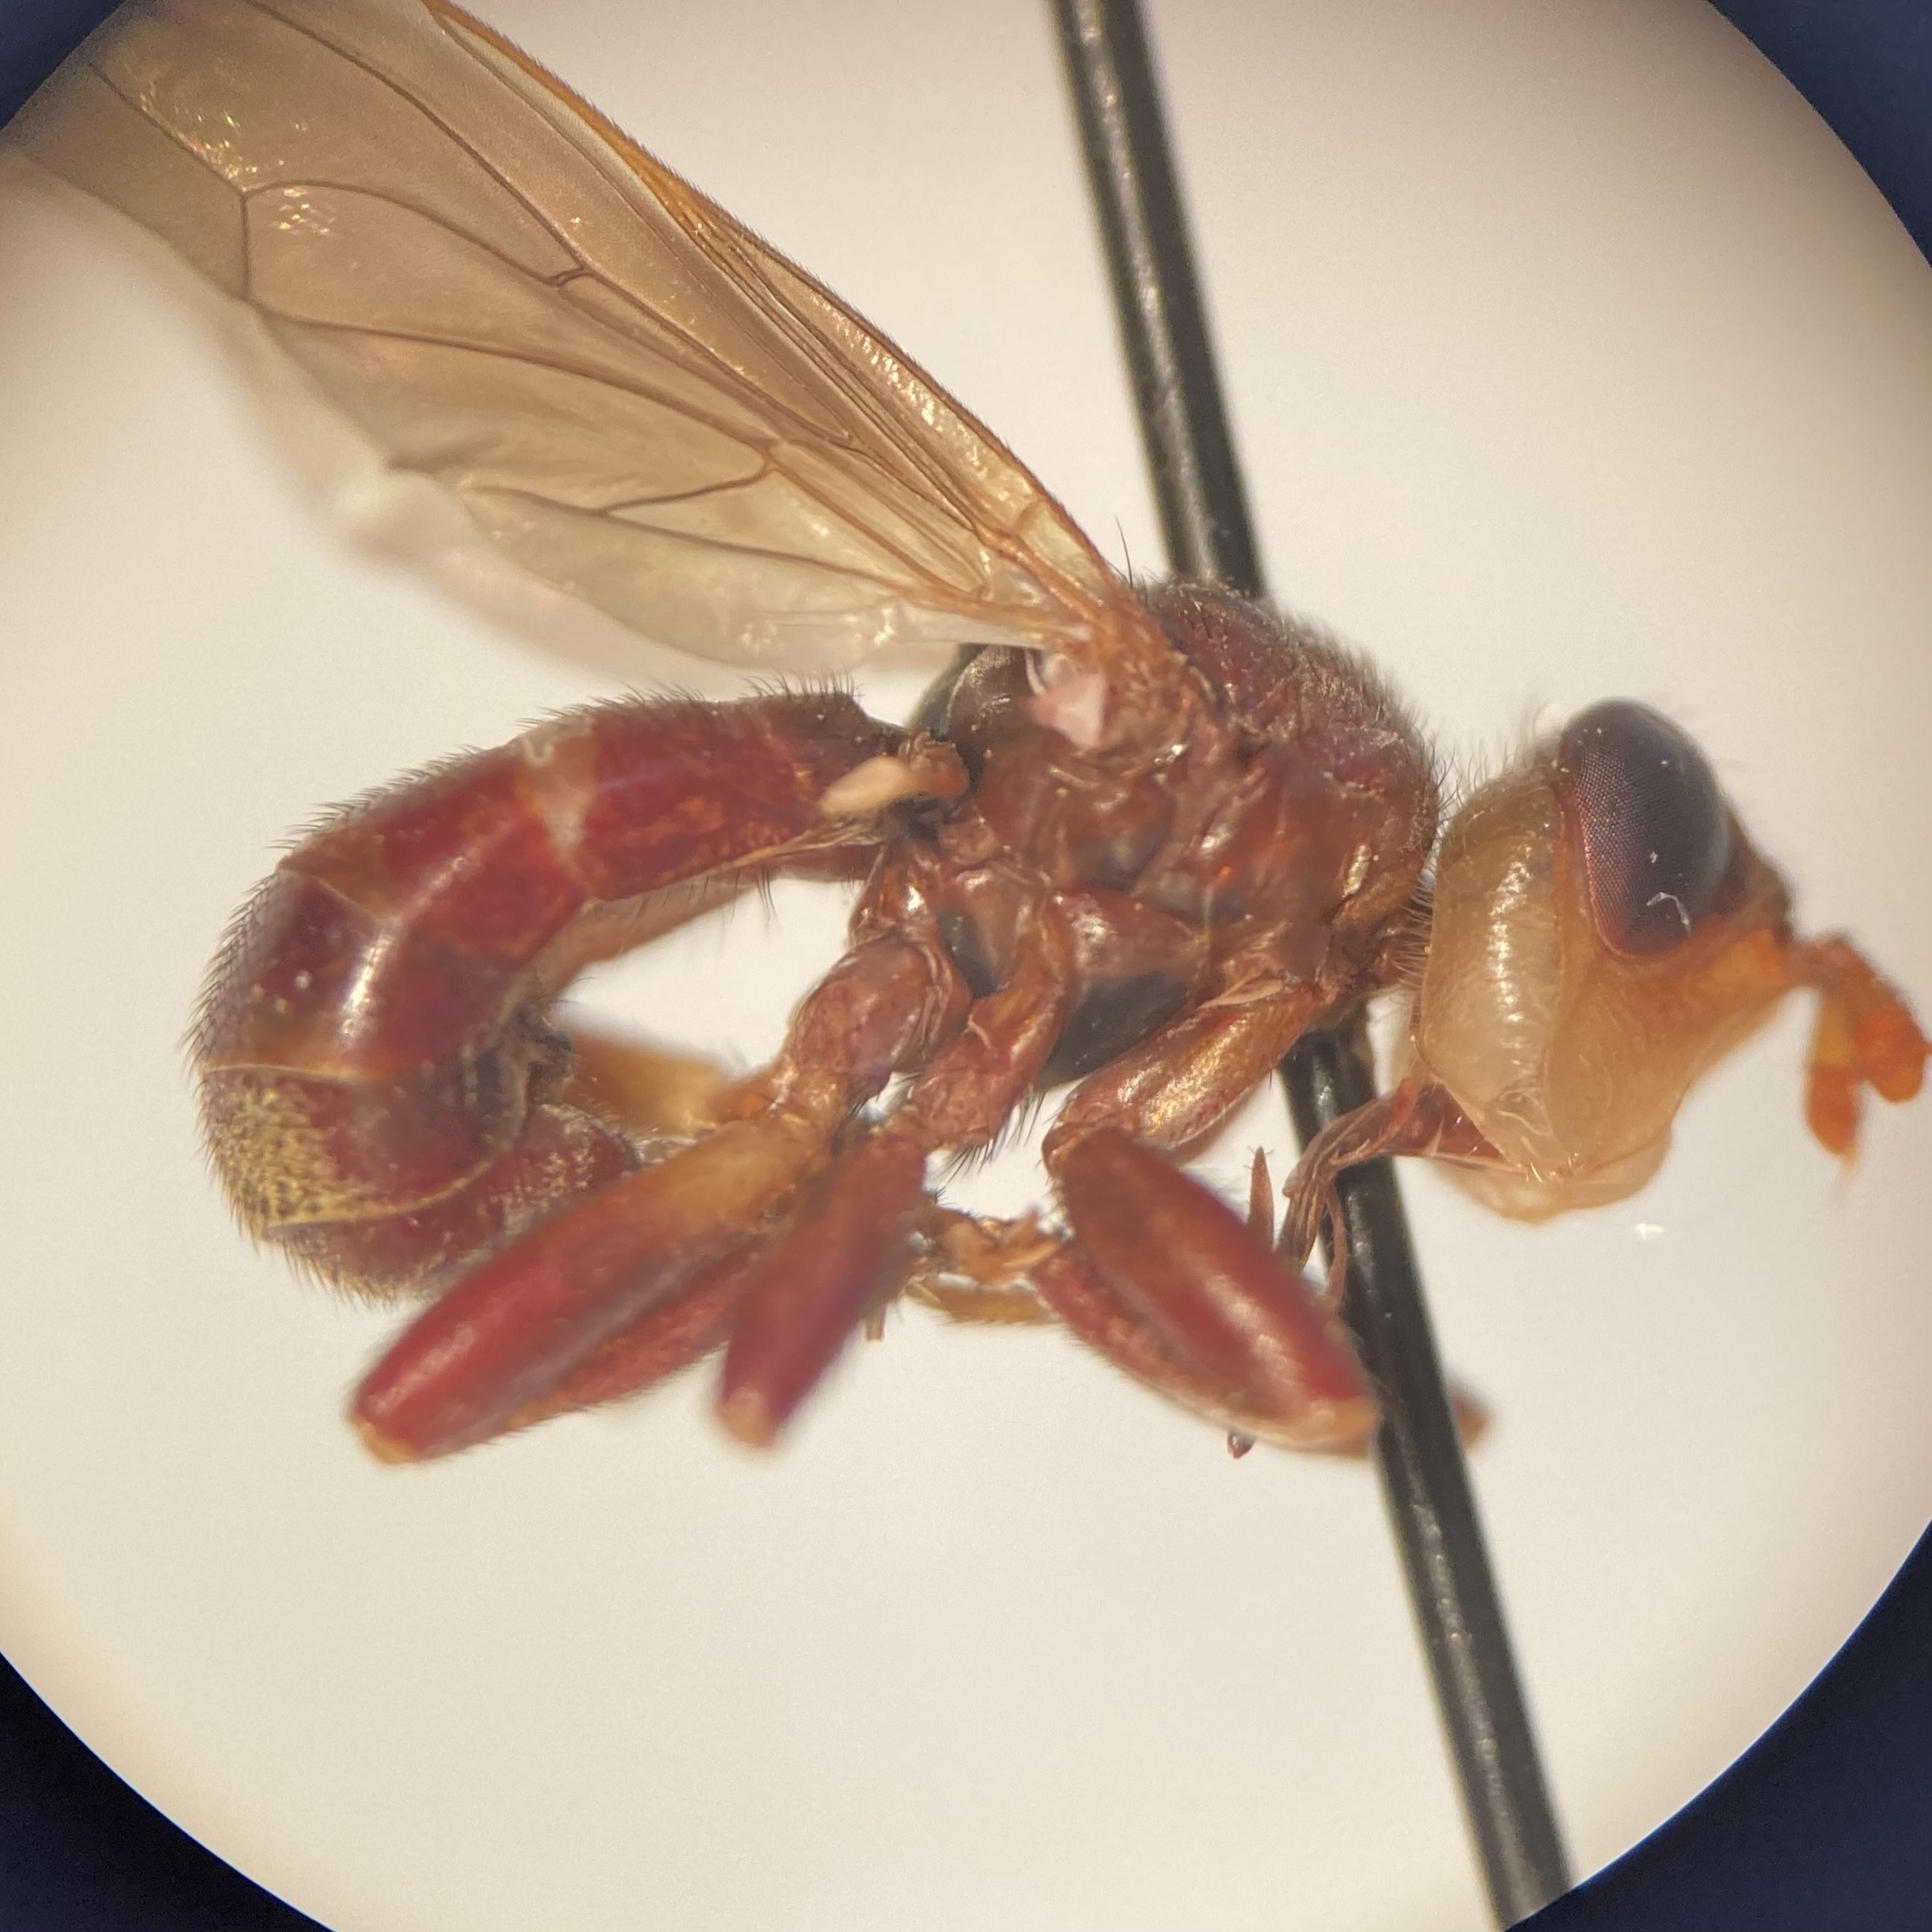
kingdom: Animalia
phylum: Arthropoda
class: Insecta
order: Diptera
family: Conopidae
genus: Myopa
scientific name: Myopa clausa
